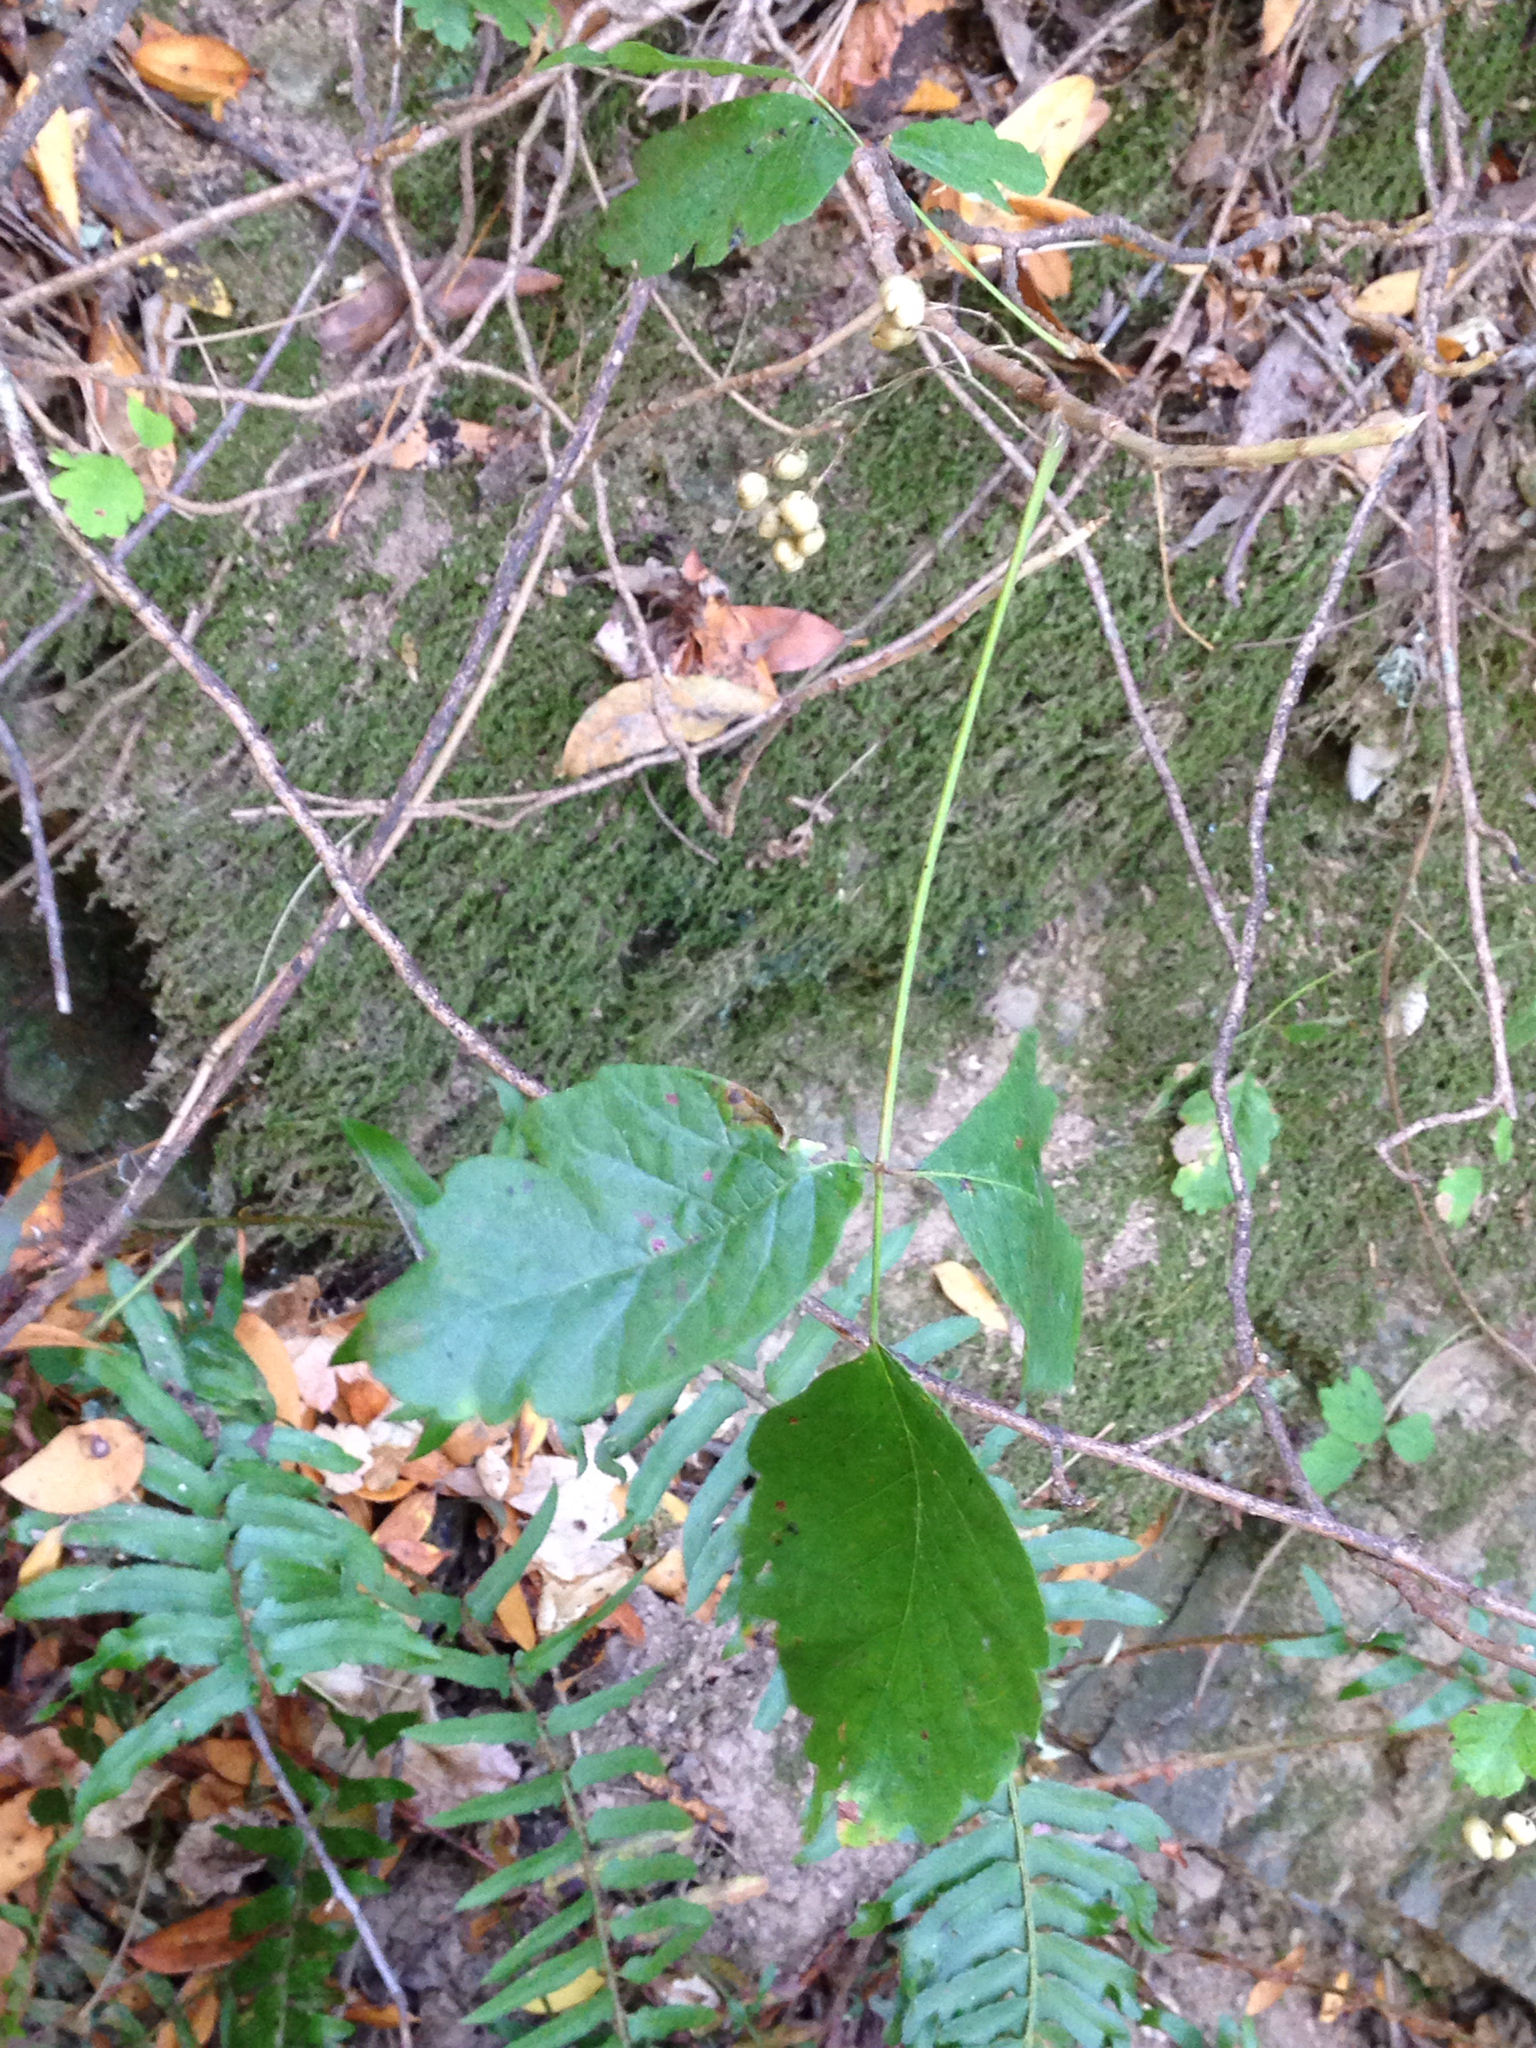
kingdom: Plantae
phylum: Tracheophyta
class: Magnoliopsida
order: Sapindales
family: Anacardiaceae
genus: Toxicodendron
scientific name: Toxicodendron diversilobum
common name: Pacific poison-oak
